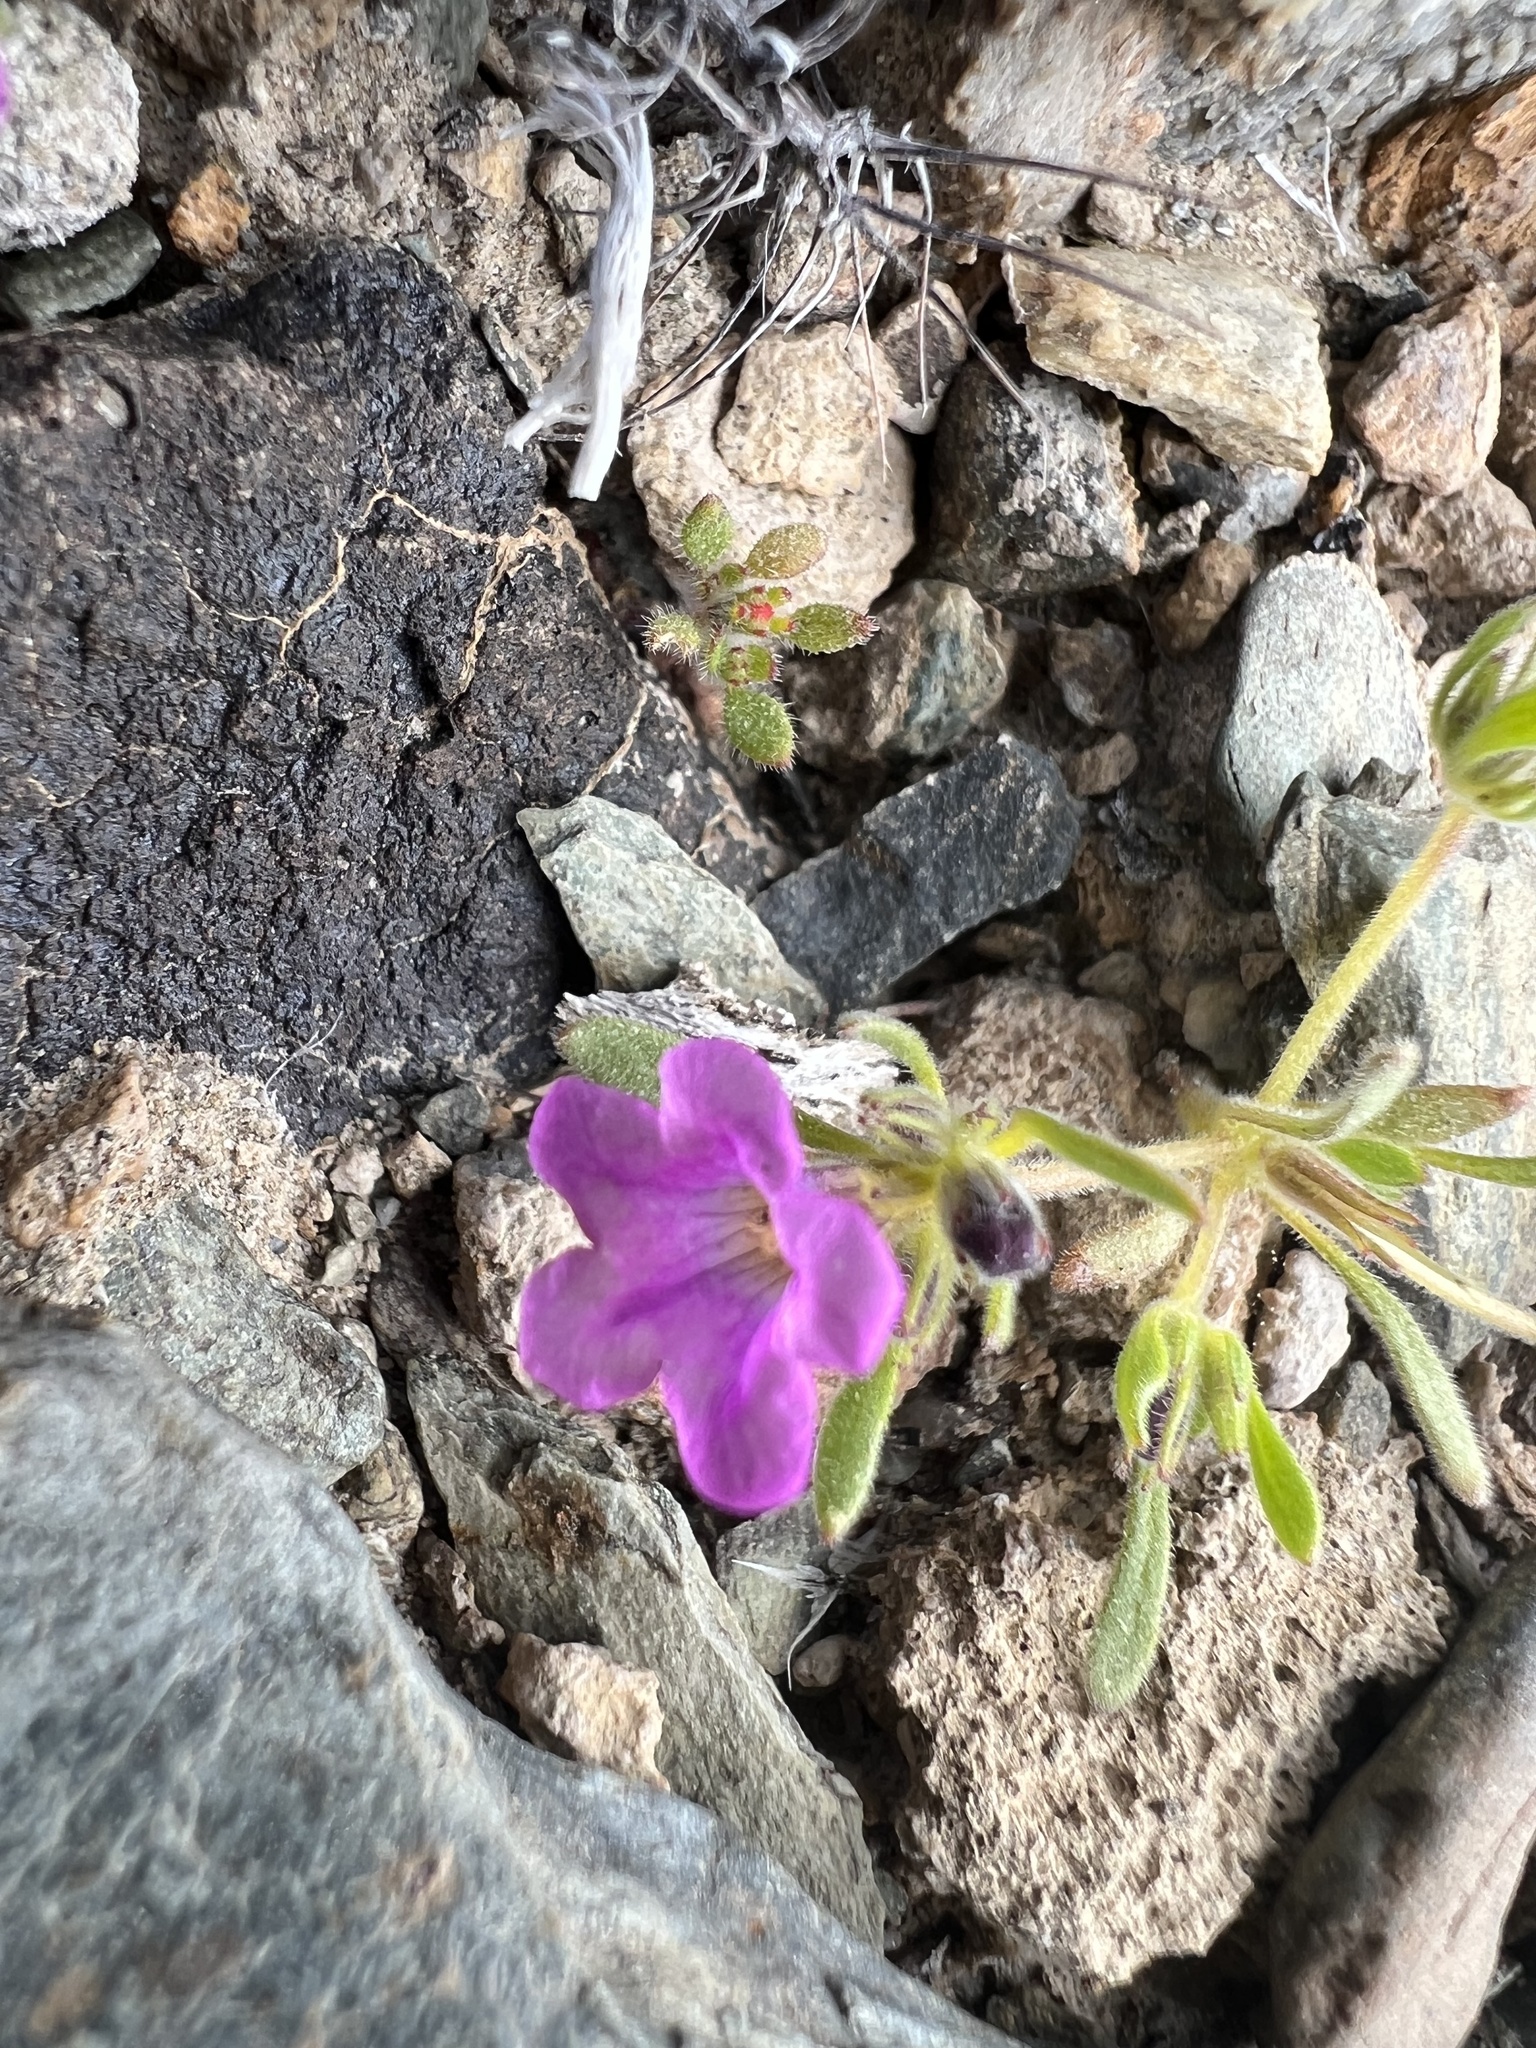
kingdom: Plantae
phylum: Tracheophyta
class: Magnoliopsida
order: Boraginales
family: Namaceae
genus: Nama
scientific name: Nama demissa
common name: Leafy nama
